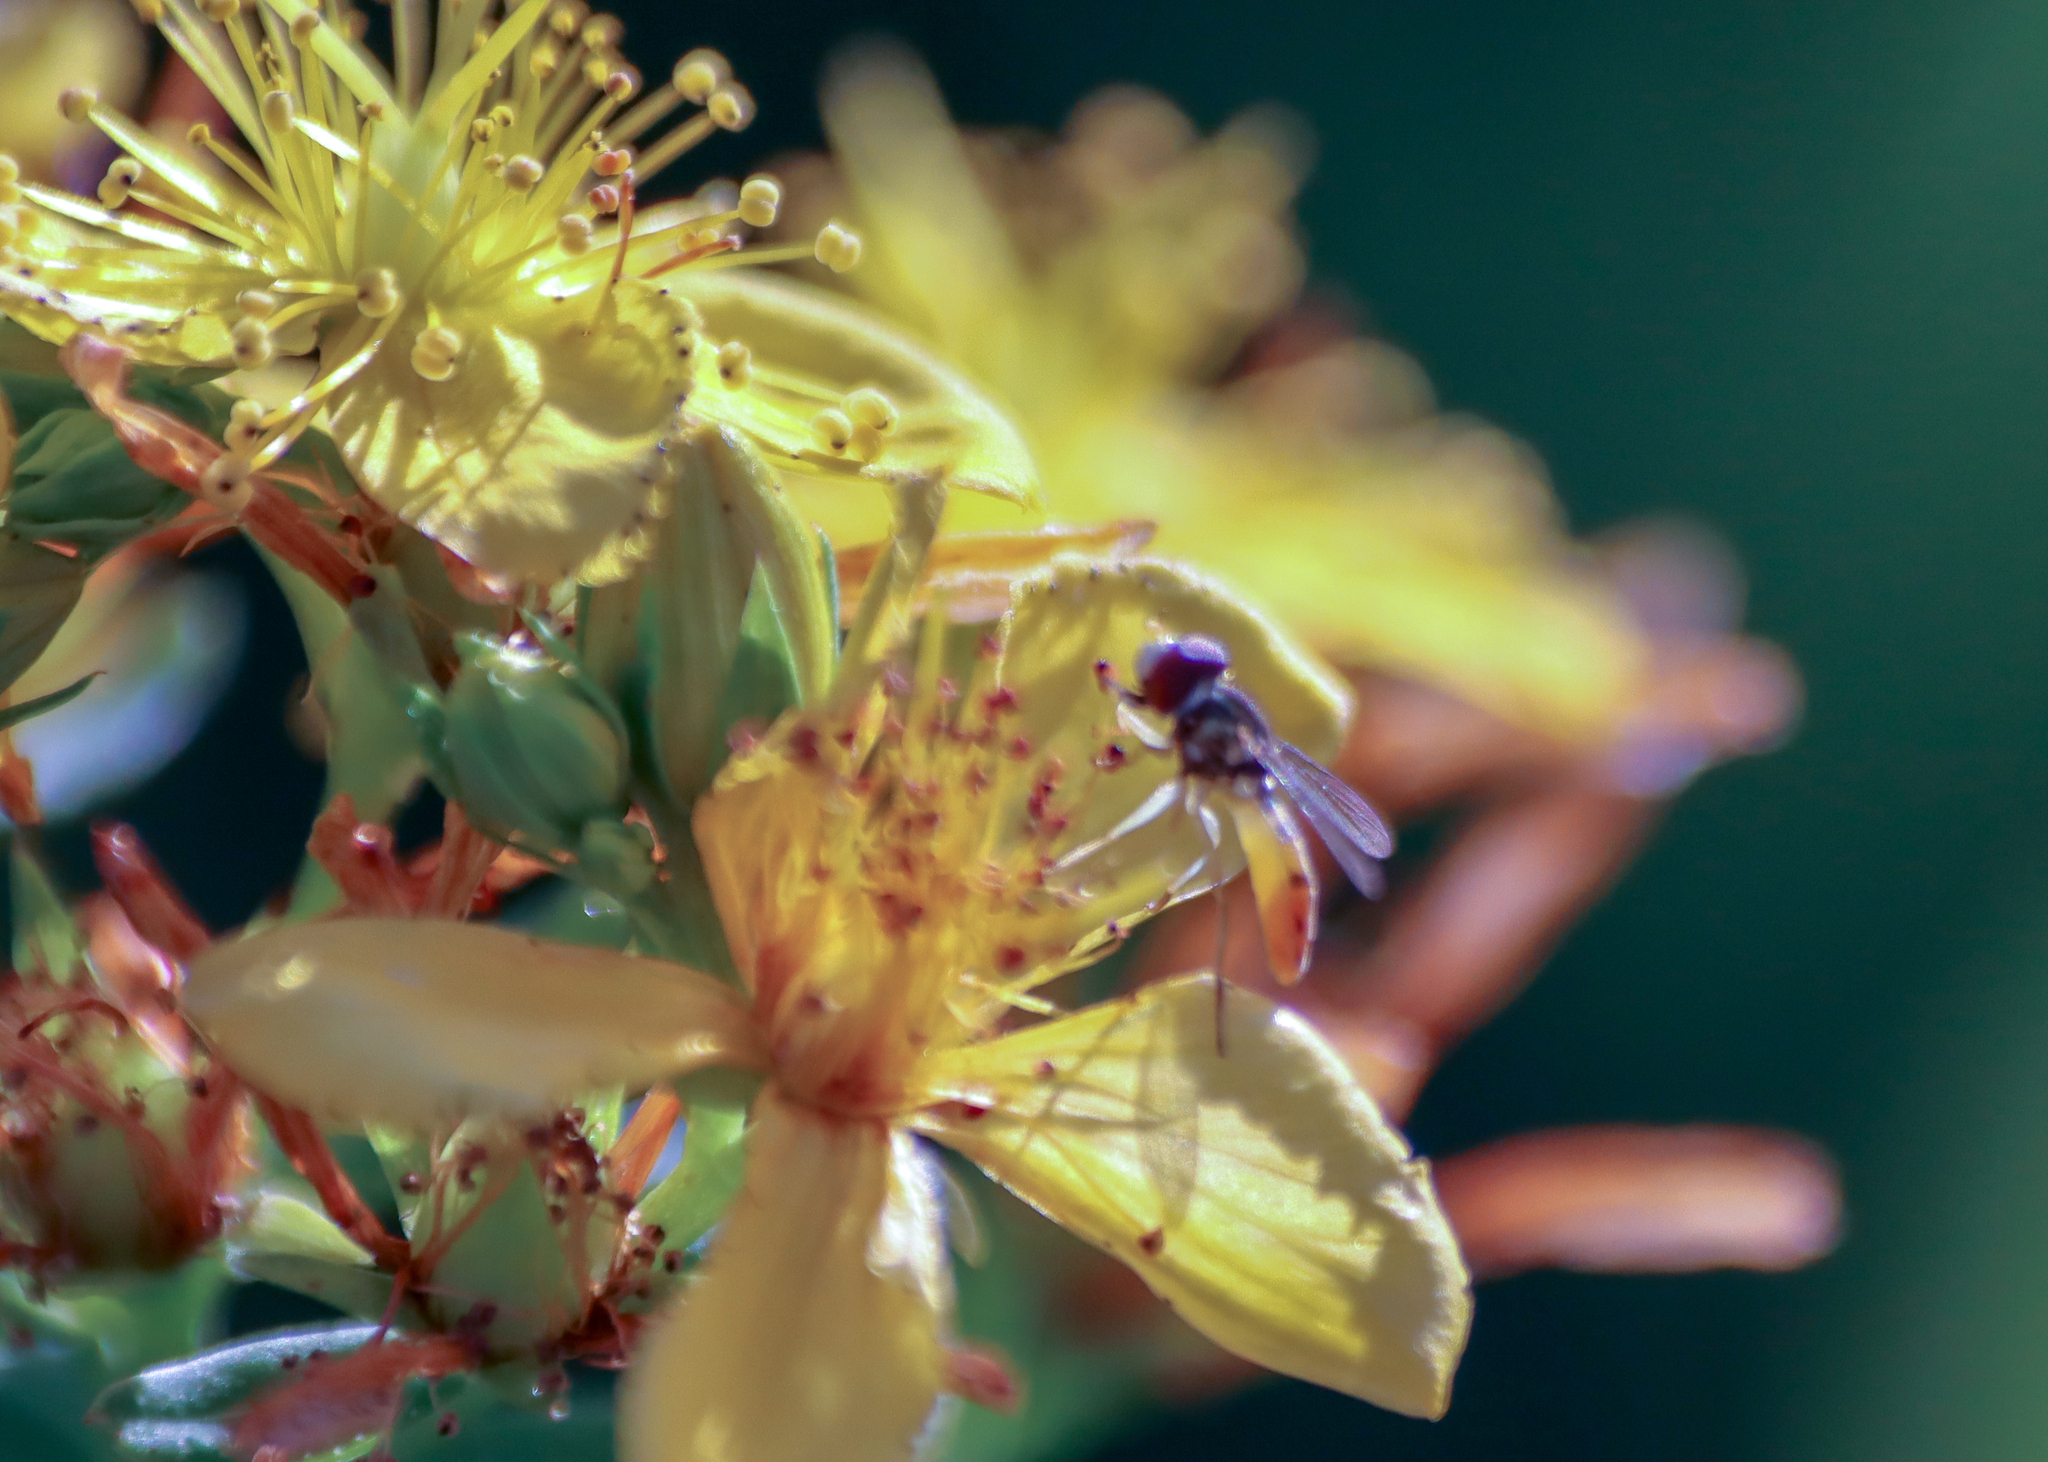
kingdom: Animalia
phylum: Arthropoda
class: Insecta
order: Diptera
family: Syrphidae
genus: Toxomerus
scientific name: Toxomerus marginatus
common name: Syrphid fly
